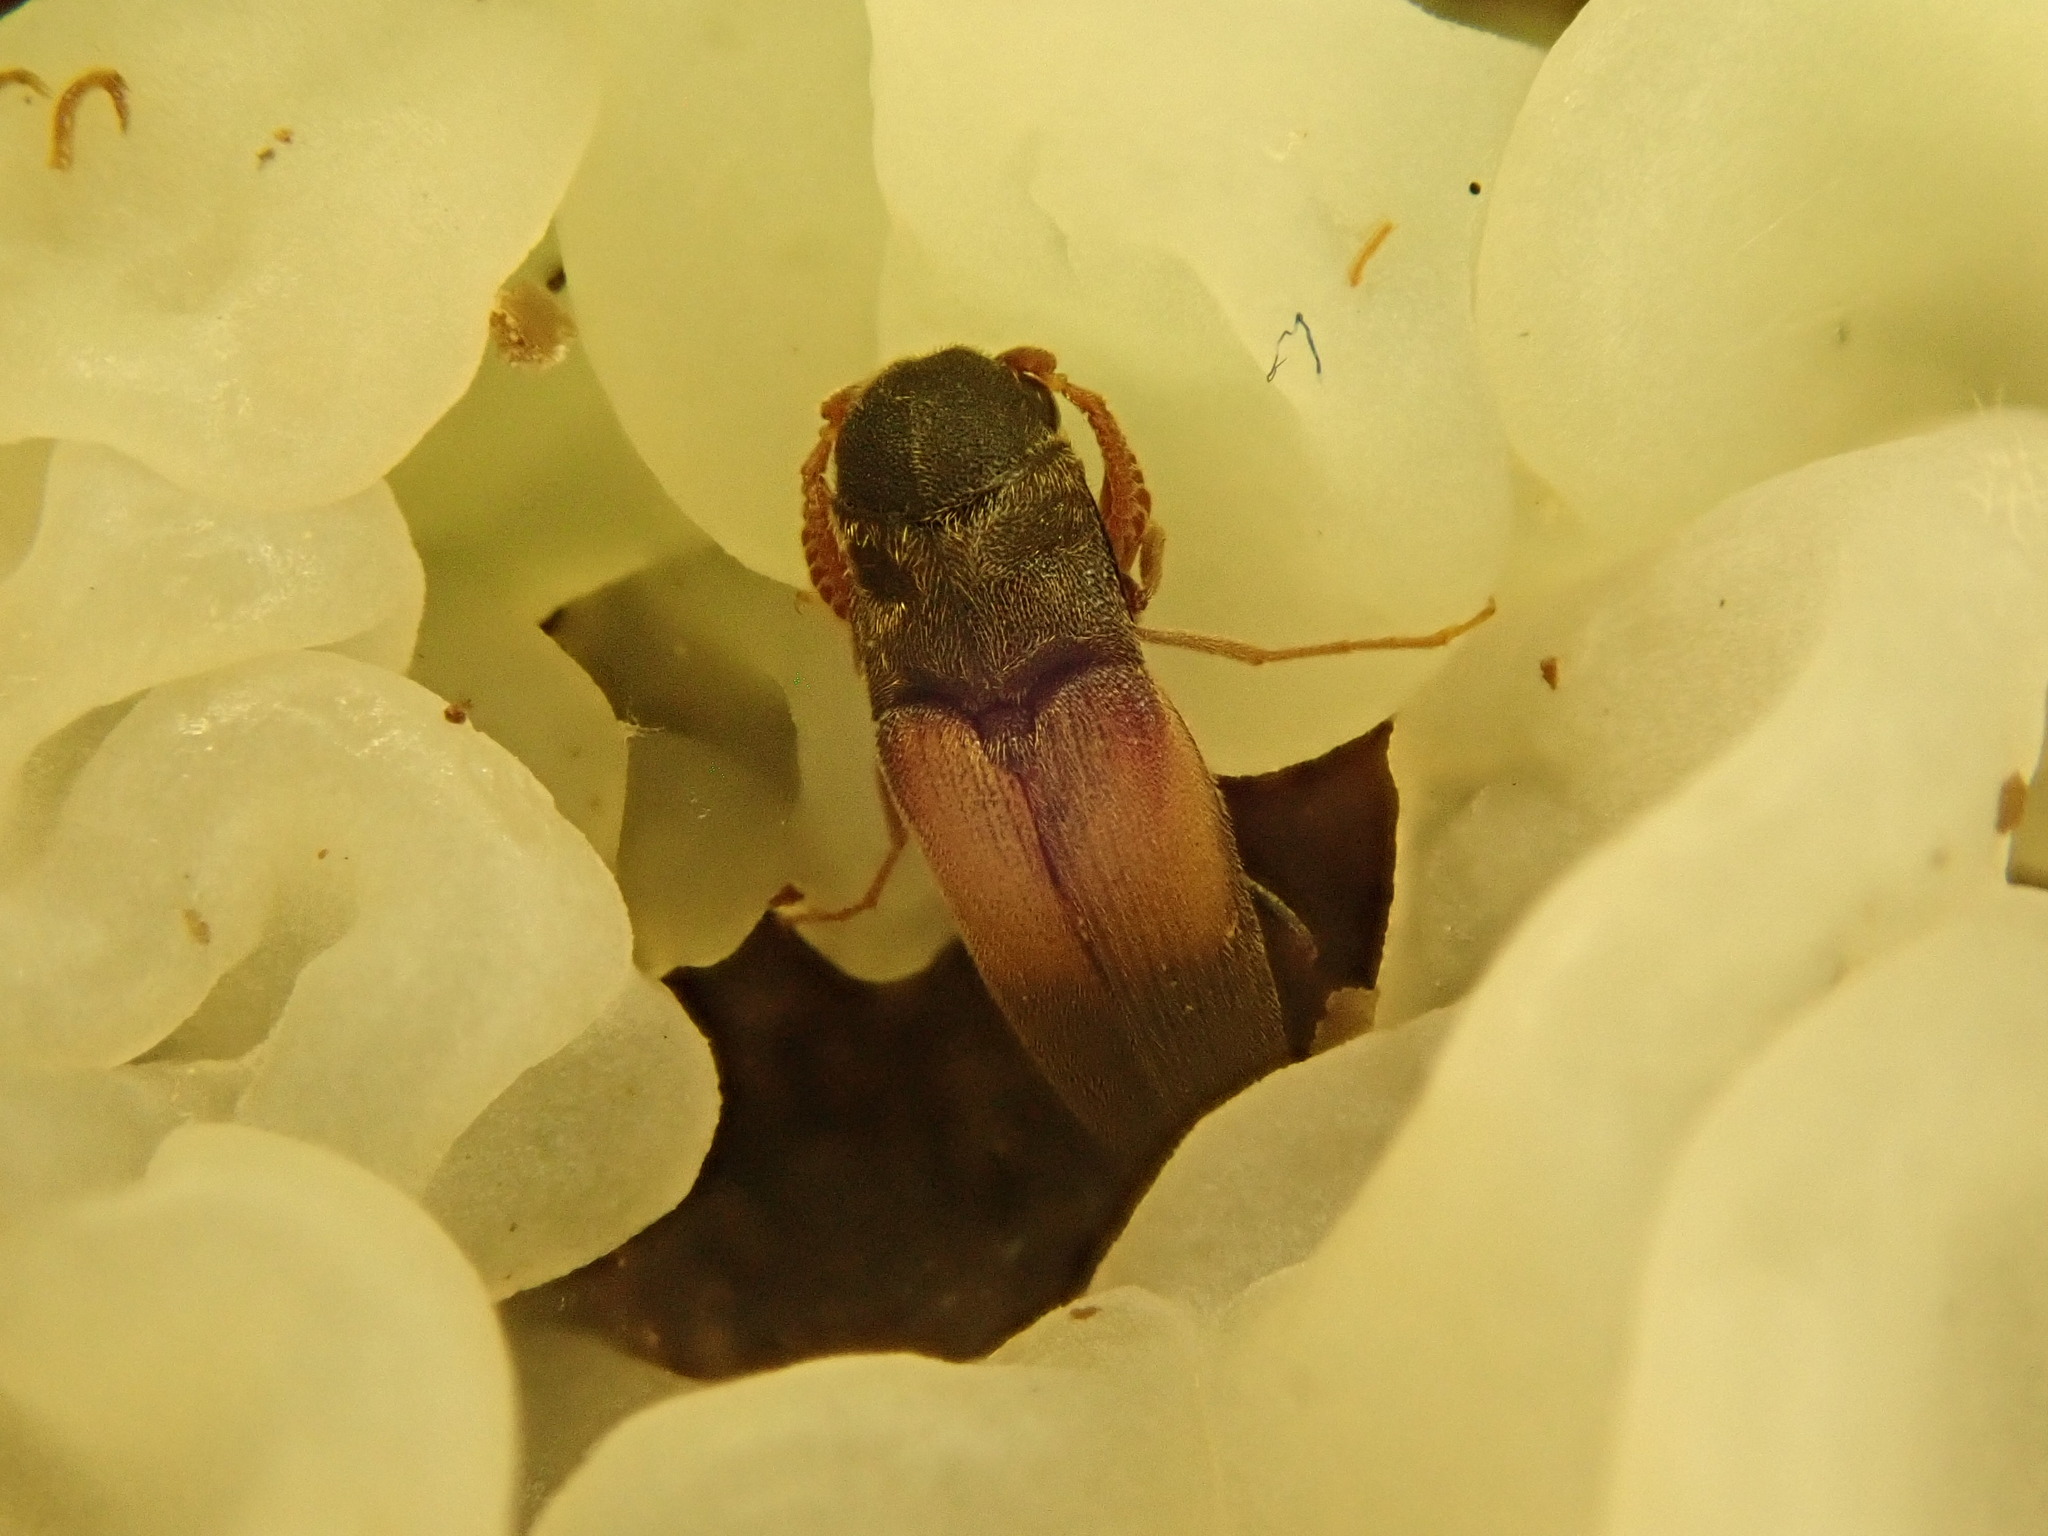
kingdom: Animalia
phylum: Arthropoda
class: Insecta
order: Coleoptera
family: Eucnemidae
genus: Isorhipis
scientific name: Isorhipis ruficornis
